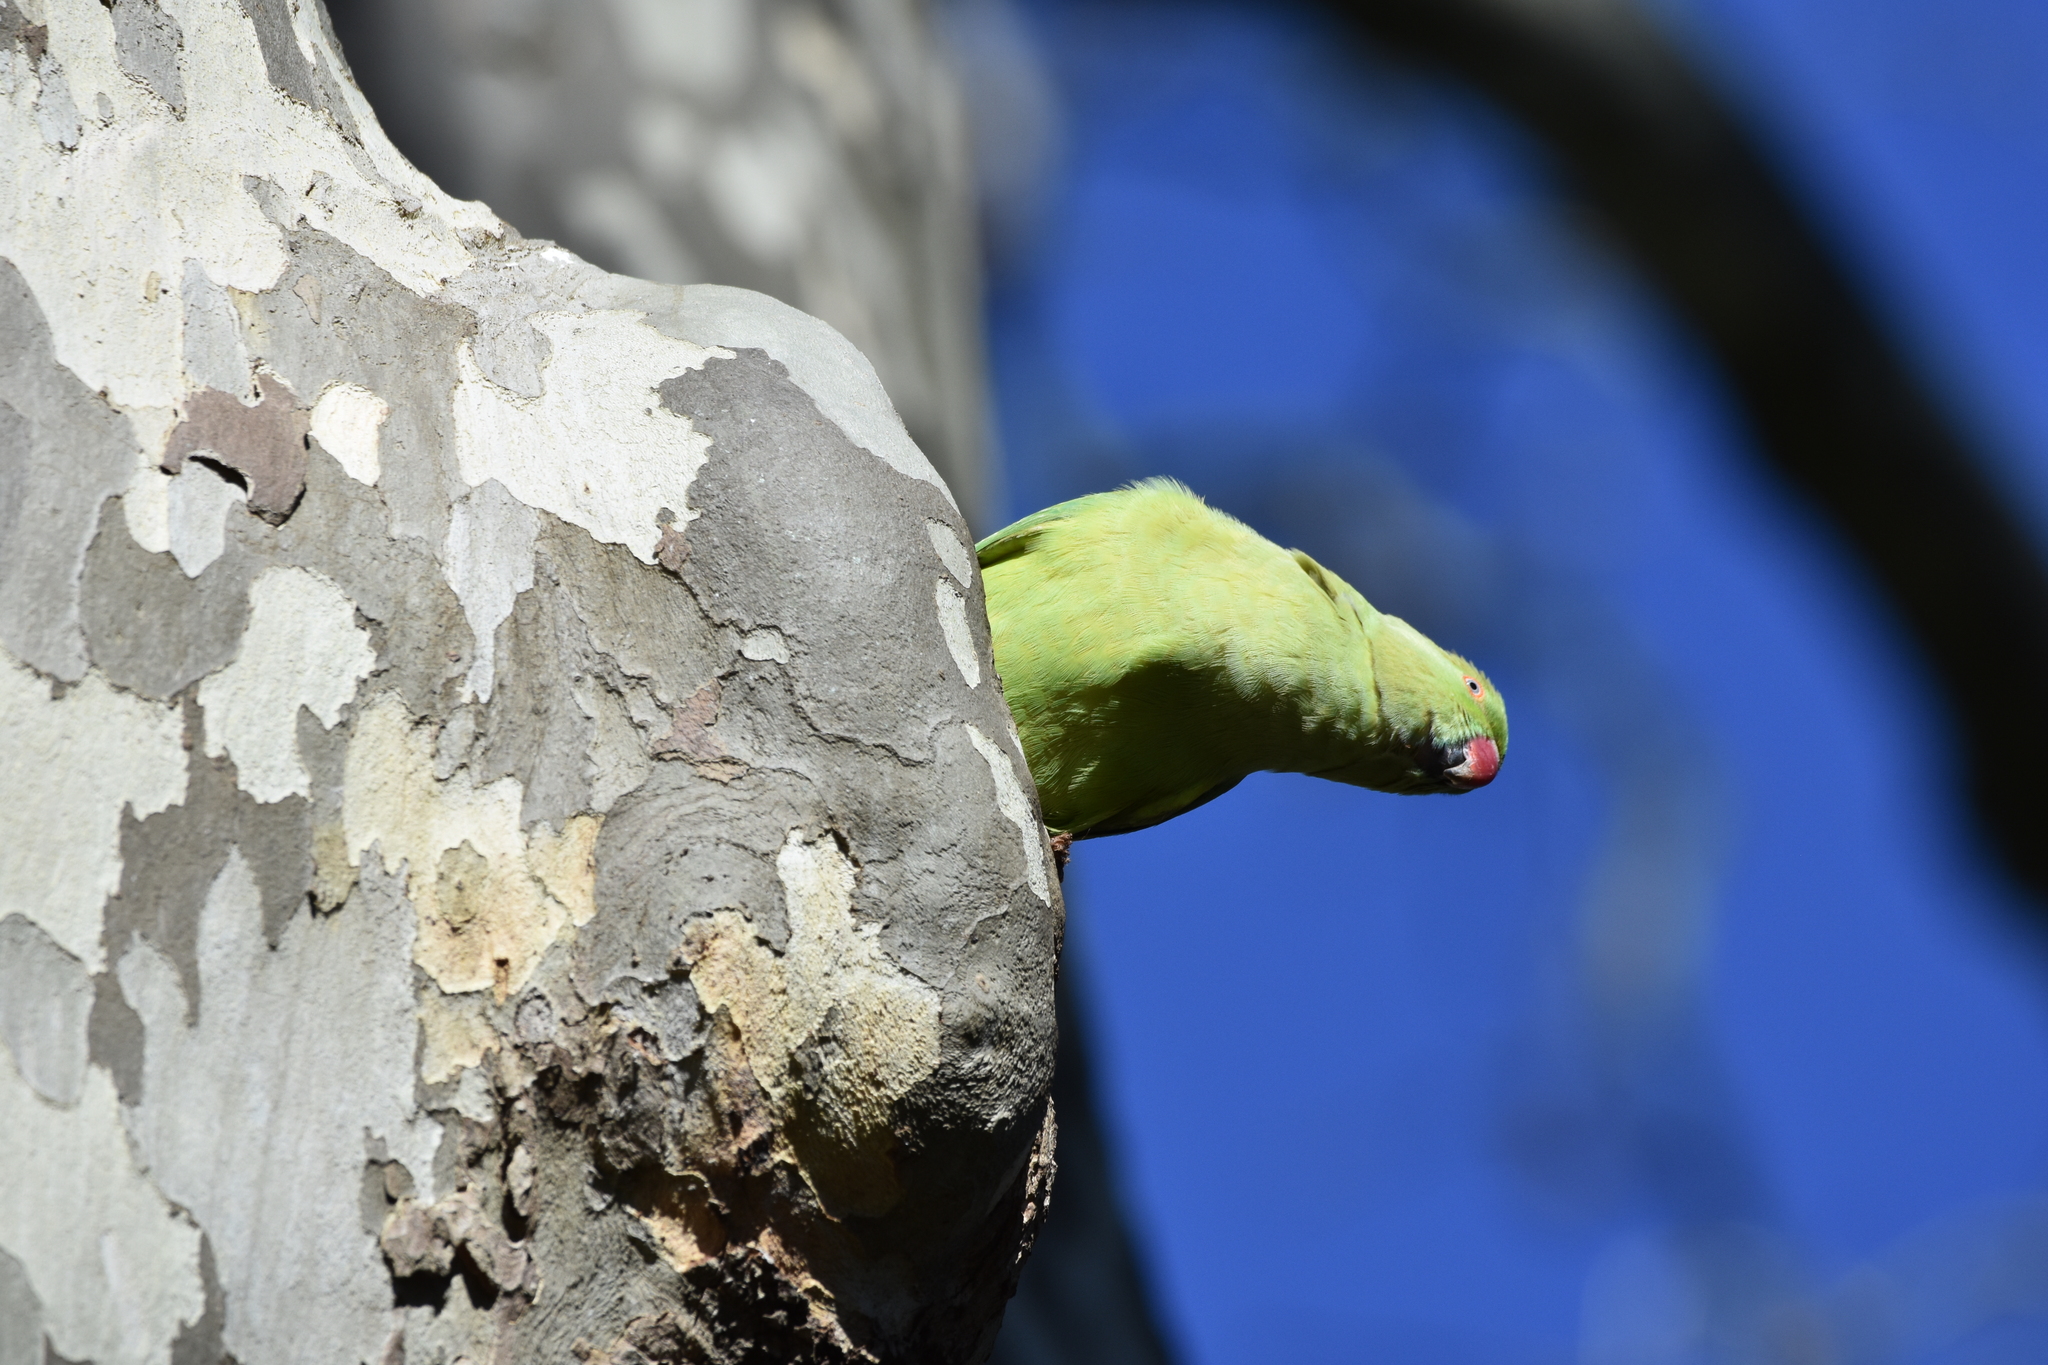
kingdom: Animalia
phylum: Chordata
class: Aves
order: Psittaciformes
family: Psittacidae
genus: Psittacula
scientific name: Psittacula krameri
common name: Rose-ringed parakeet
